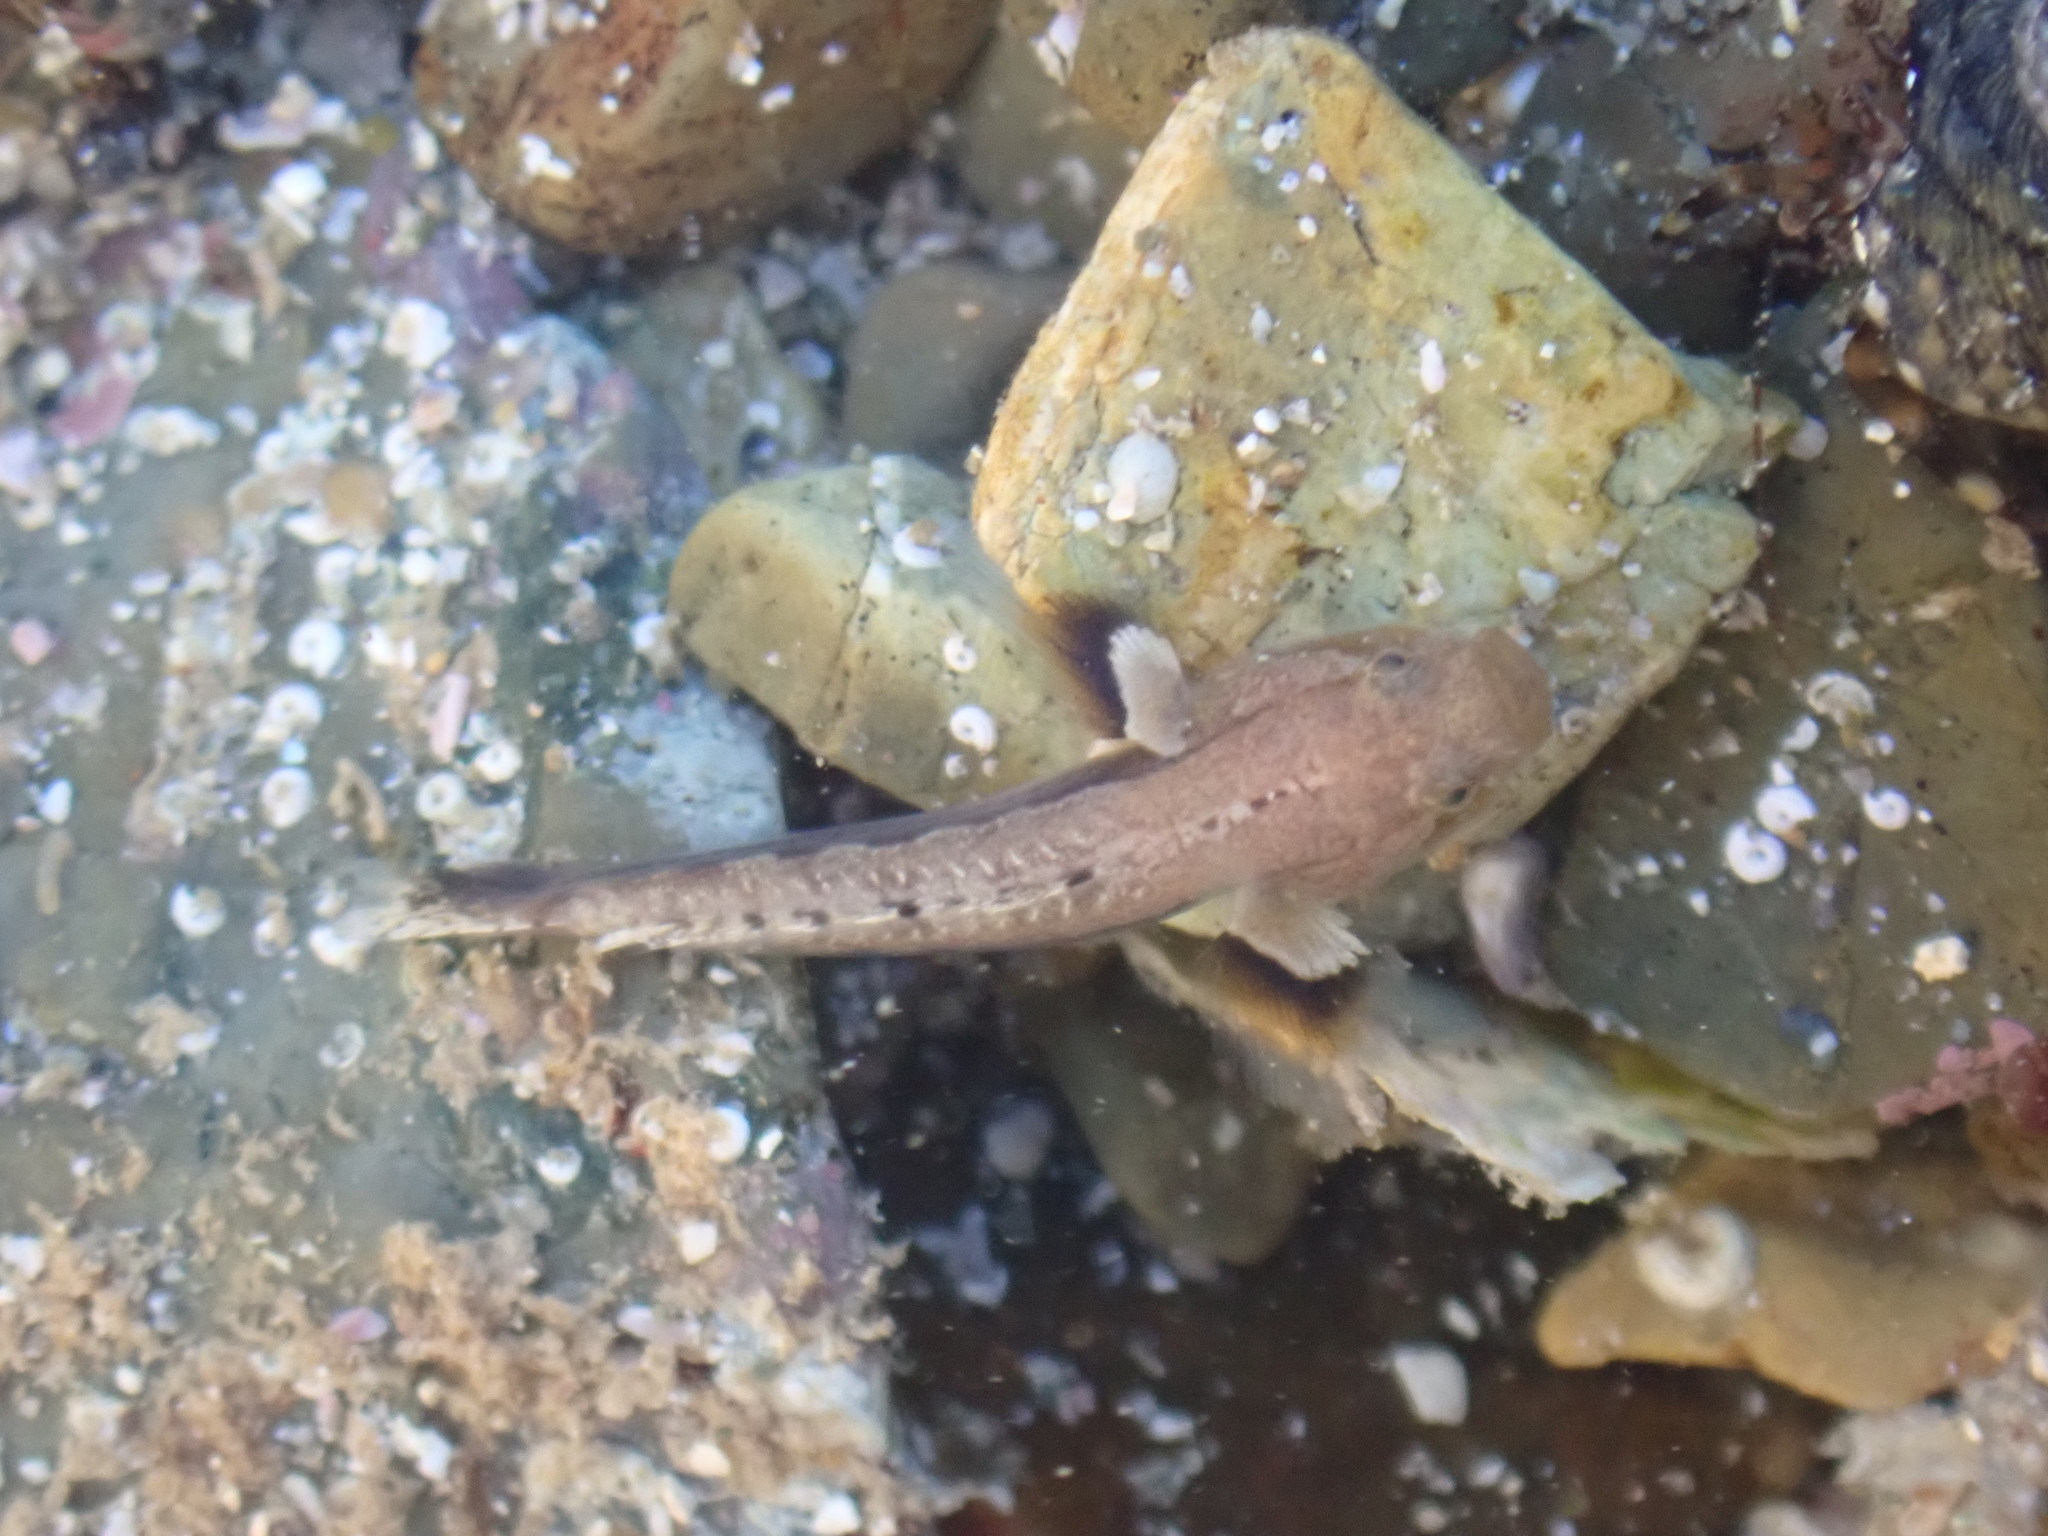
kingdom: Animalia
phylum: Chordata
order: Perciformes
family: Gobiidae
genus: Gobiopsis
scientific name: Gobiopsis atrata
